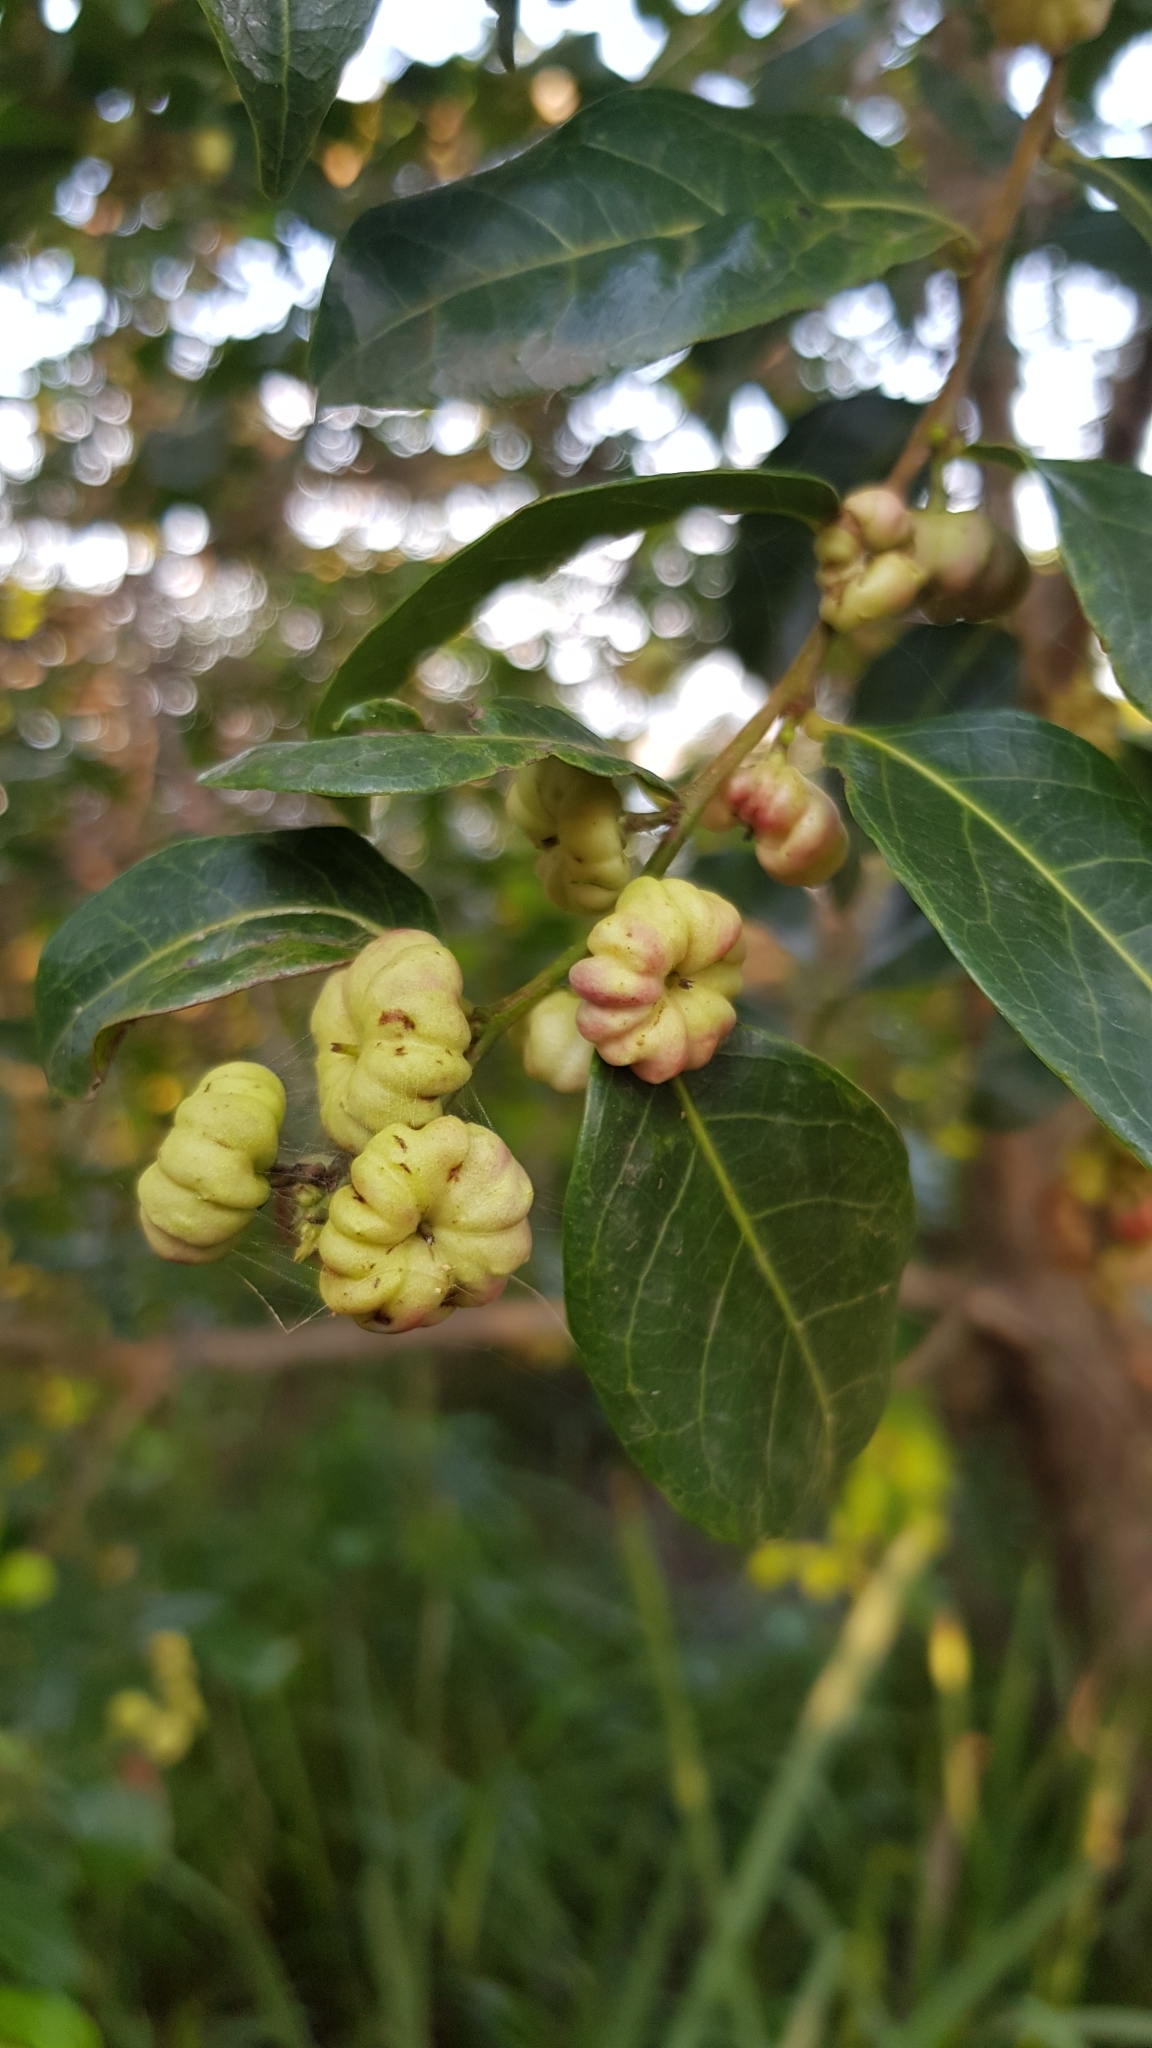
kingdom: Plantae
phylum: Tracheophyta
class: Magnoliopsida
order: Malpighiales
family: Phyllanthaceae
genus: Glochidion
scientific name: Glochidion ferdinandi
